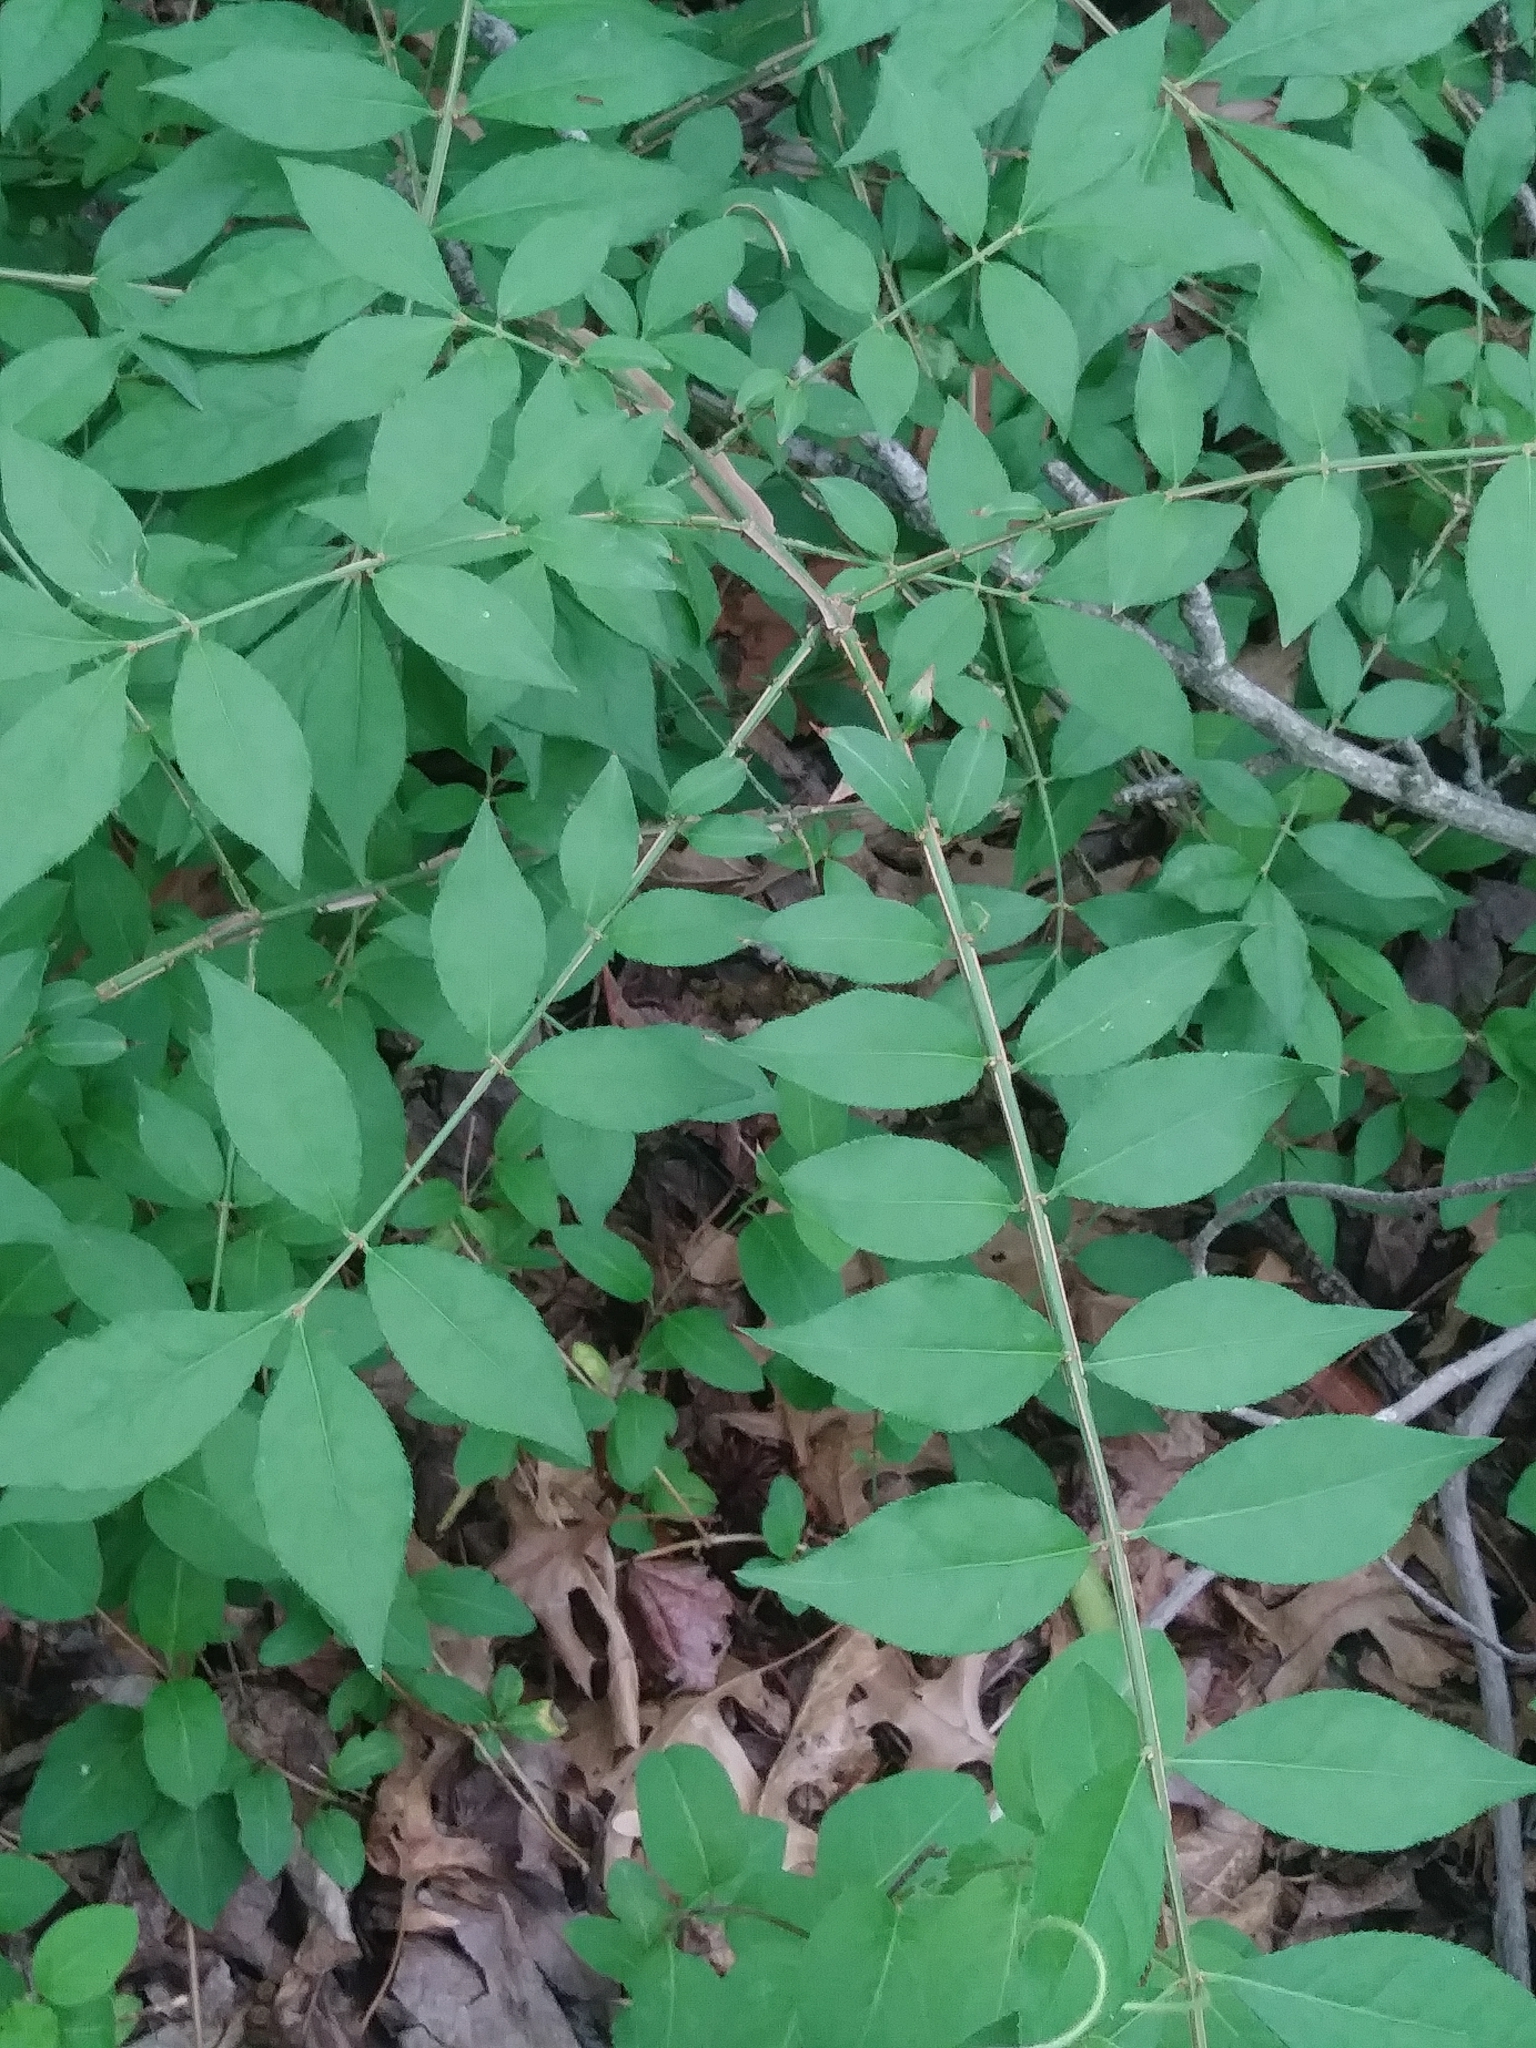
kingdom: Plantae
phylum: Tracheophyta
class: Magnoliopsida
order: Celastrales
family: Celastraceae
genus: Euonymus
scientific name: Euonymus alatus
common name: Winged euonymus
